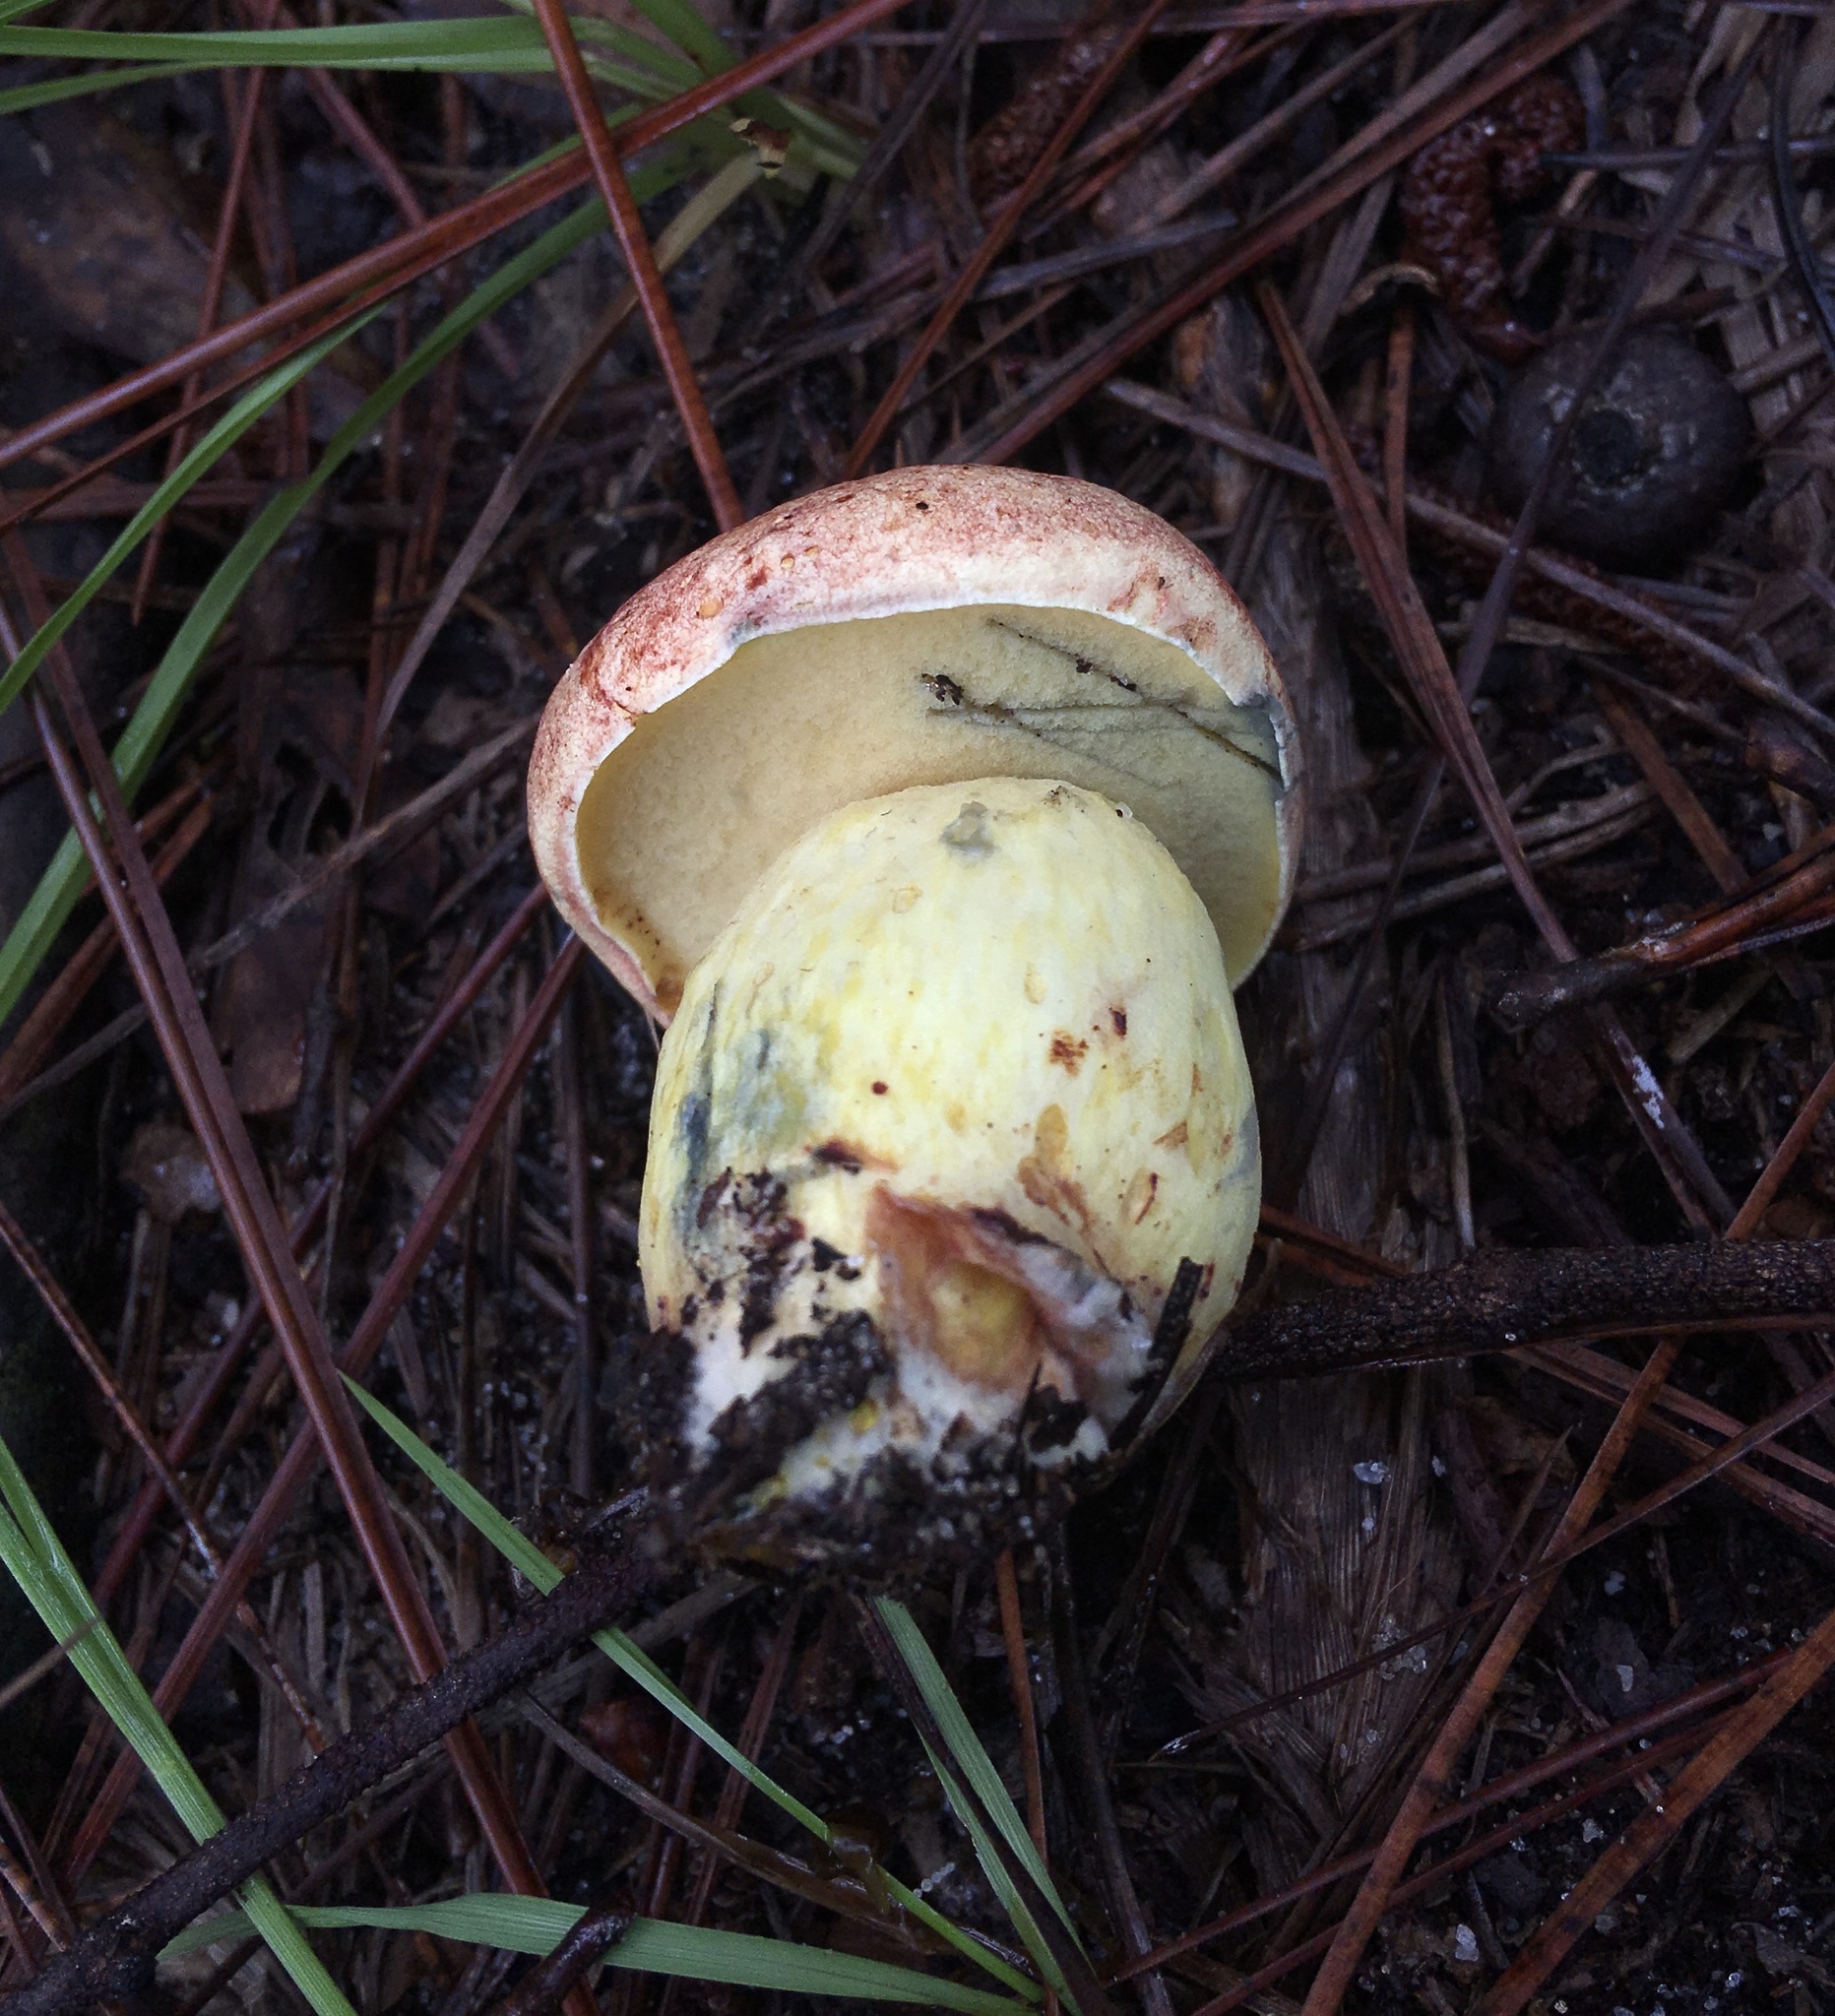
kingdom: Fungi
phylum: Basidiomycota
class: Agaricomycetes
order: Boletales
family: Boletaceae
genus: Boletus
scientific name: Boletus speciosus
